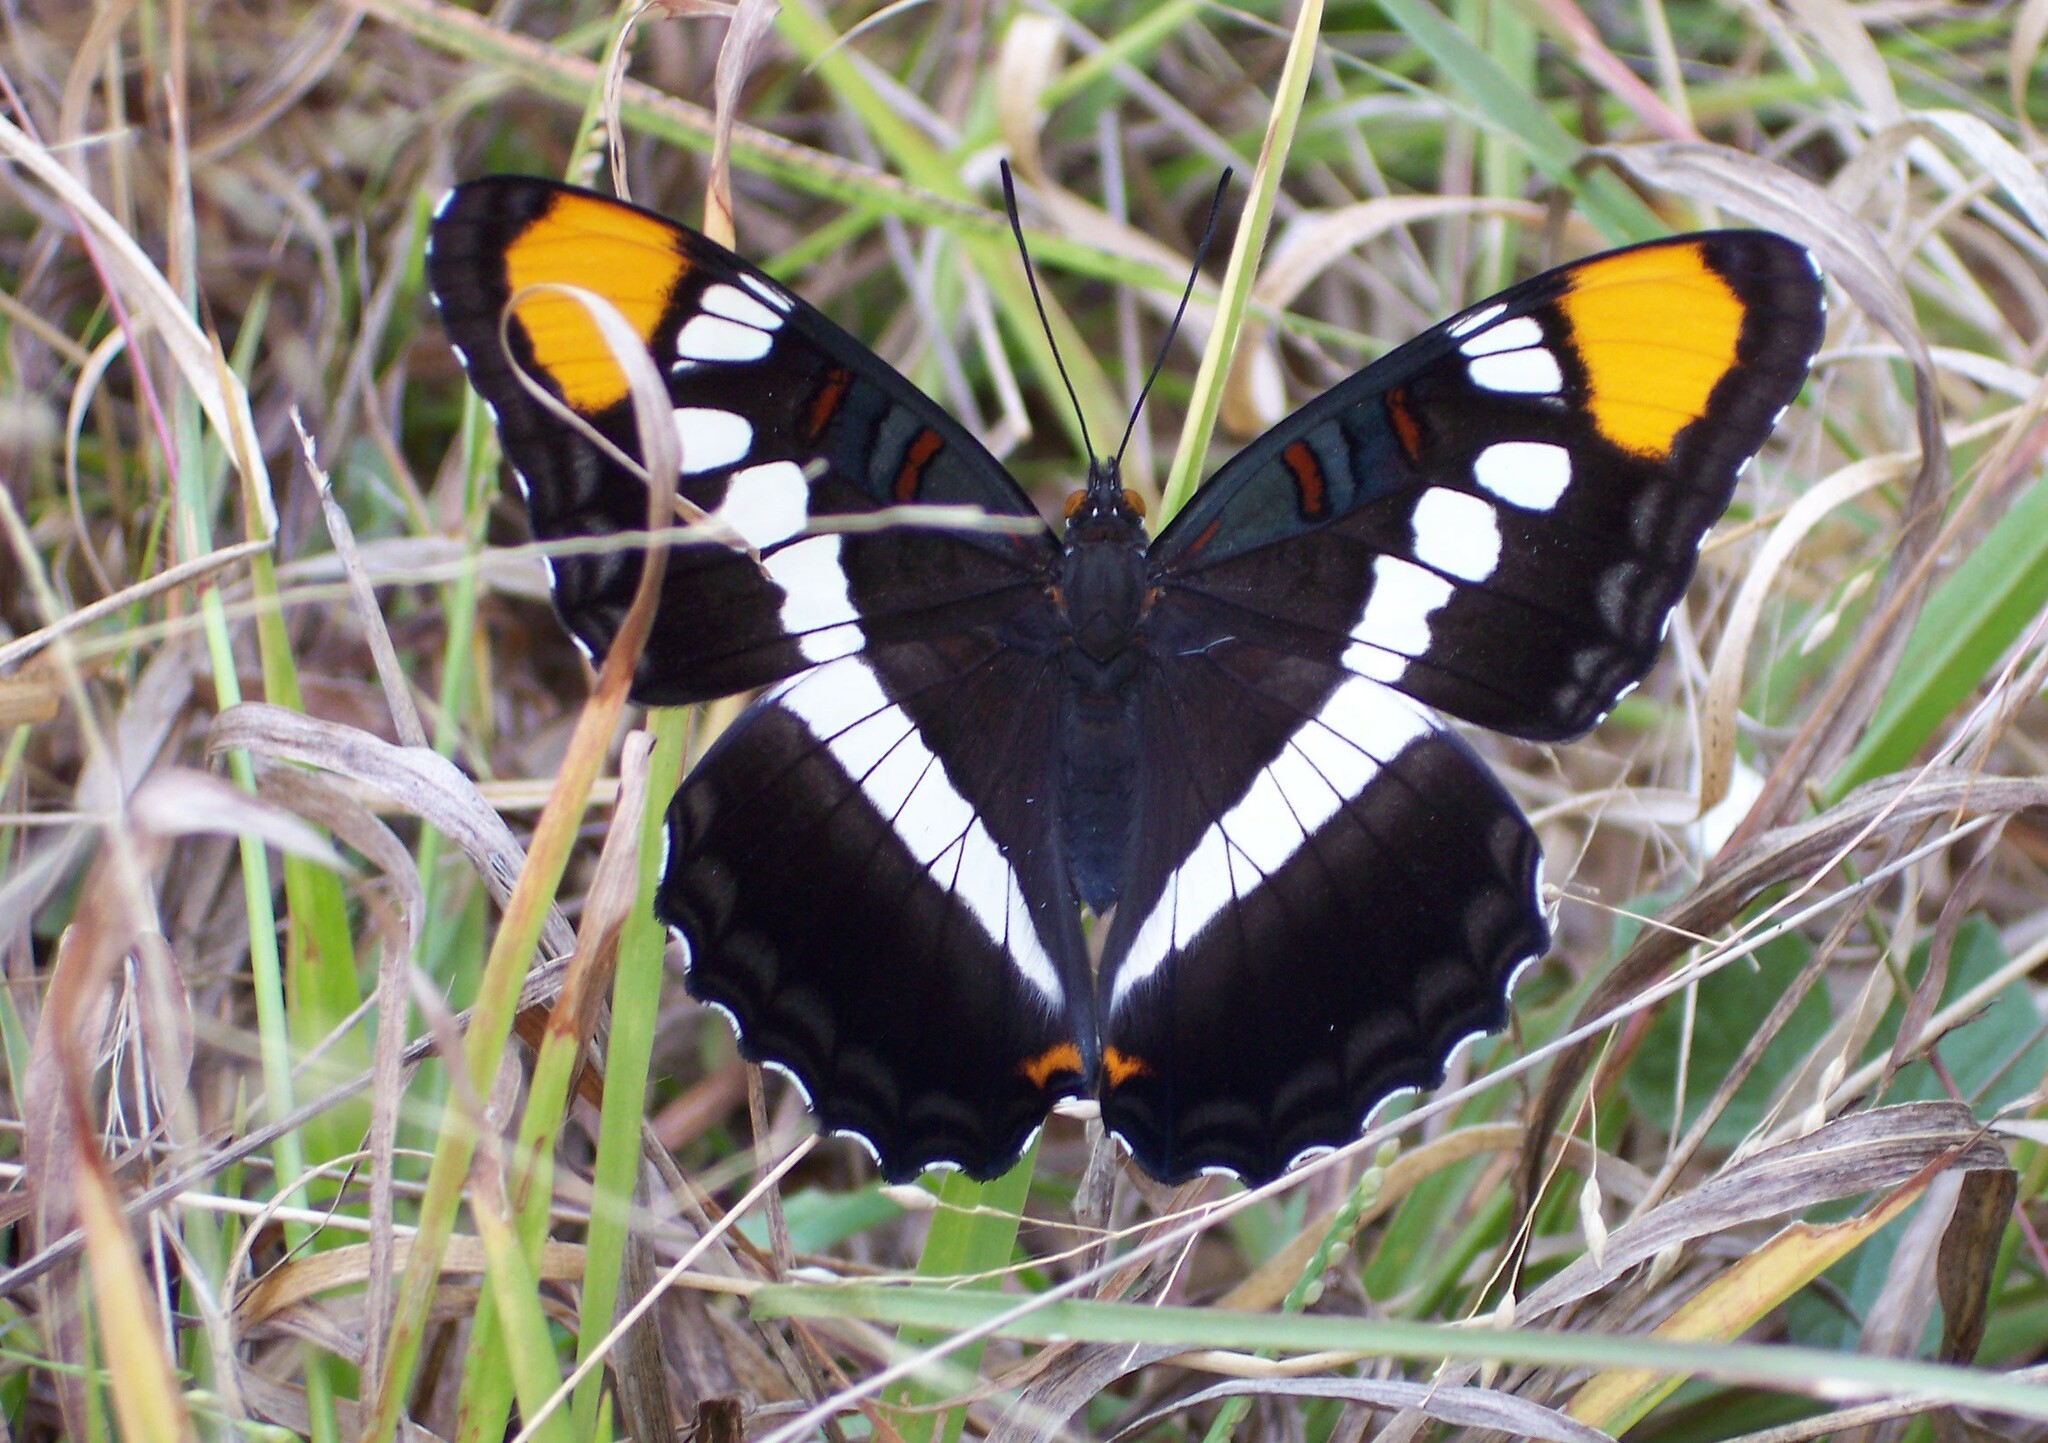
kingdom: Animalia
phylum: Arthropoda
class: Insecta
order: Lepidoptera
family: Nymphalidae
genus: Limenitis
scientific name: Limenitis bredowii
